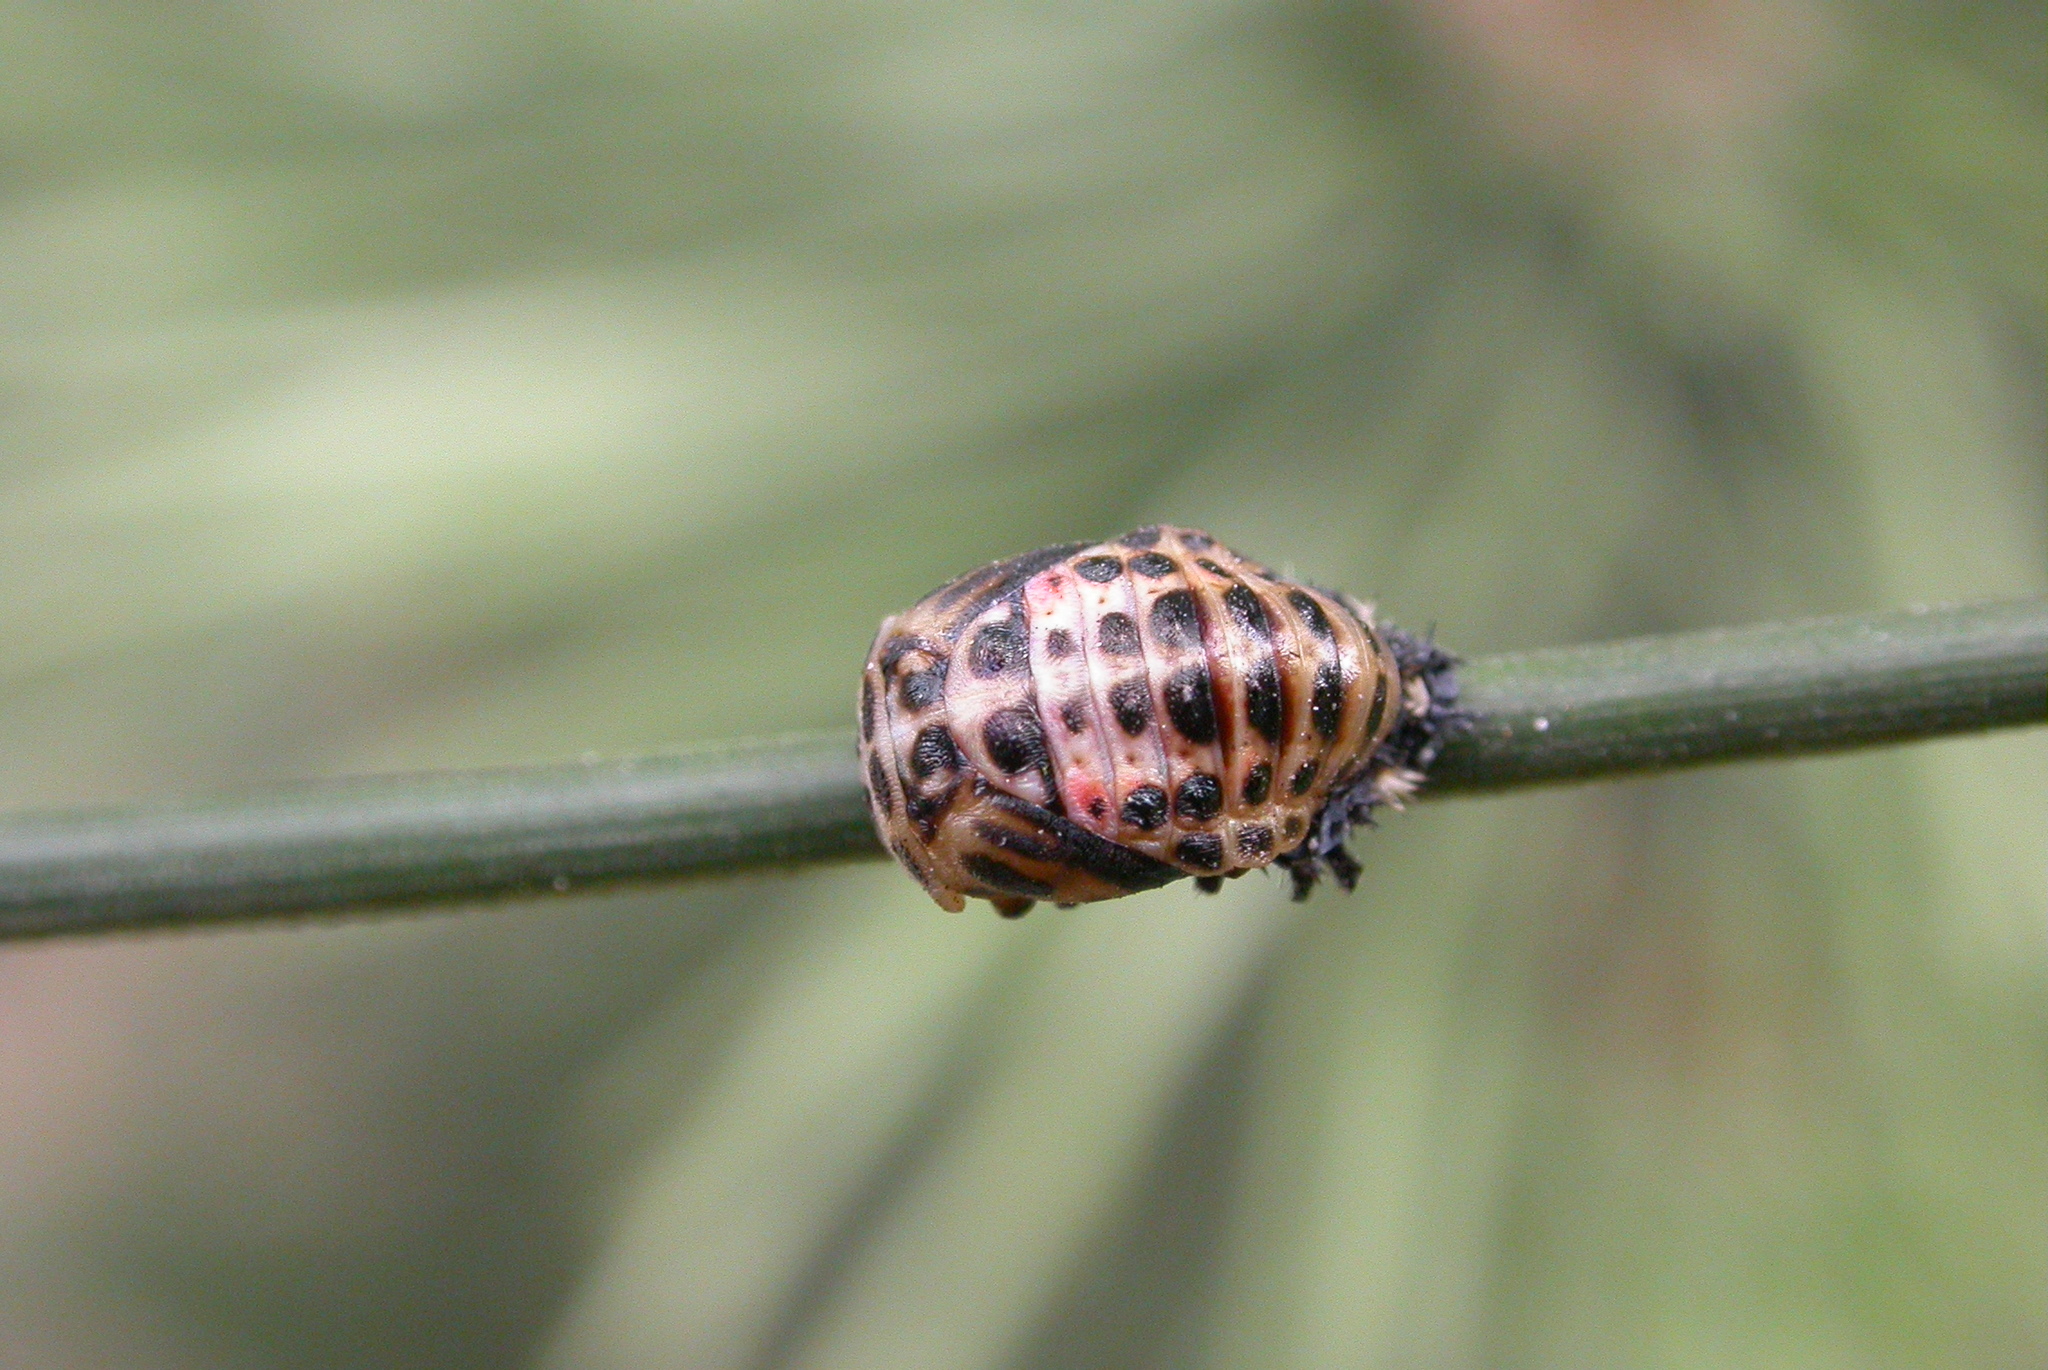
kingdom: Animalia
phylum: Arthropoda
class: Insecta
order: Coleoptera
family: Coccinellidae
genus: Harmonia
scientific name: Harmonia quadripunctata
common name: Cream-streaked ladybird
